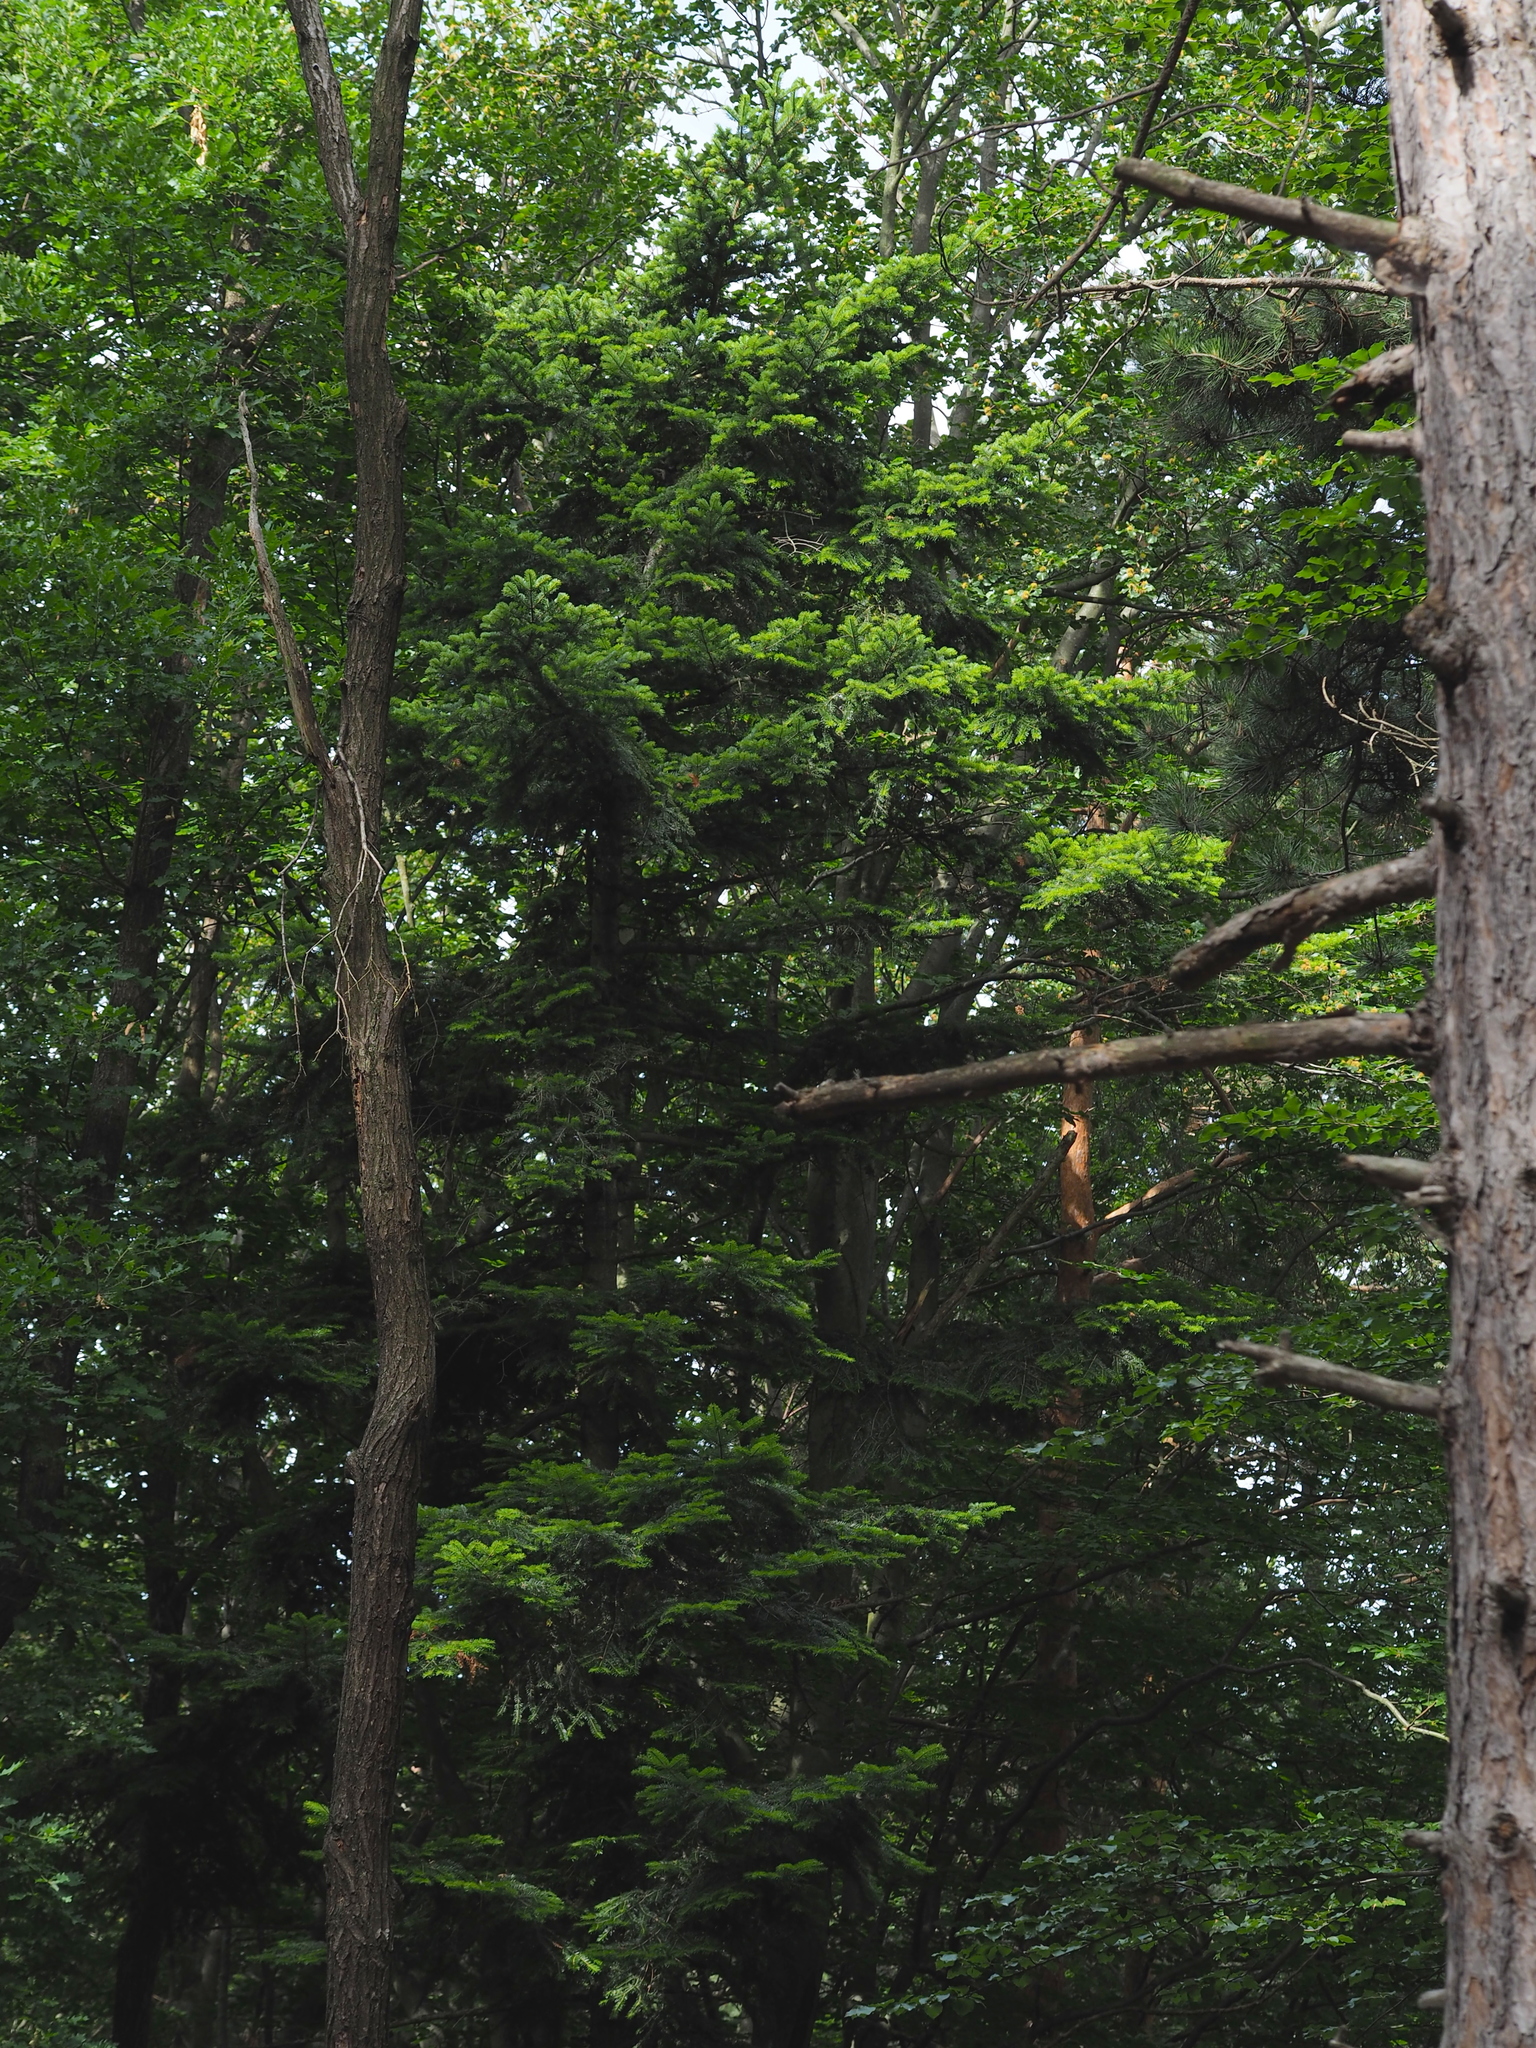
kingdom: Plantae
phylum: Tracheophyta
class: Pinopsida
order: Pinales
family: Pinaceae
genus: Abies
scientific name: Abies alba
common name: Silver fir
